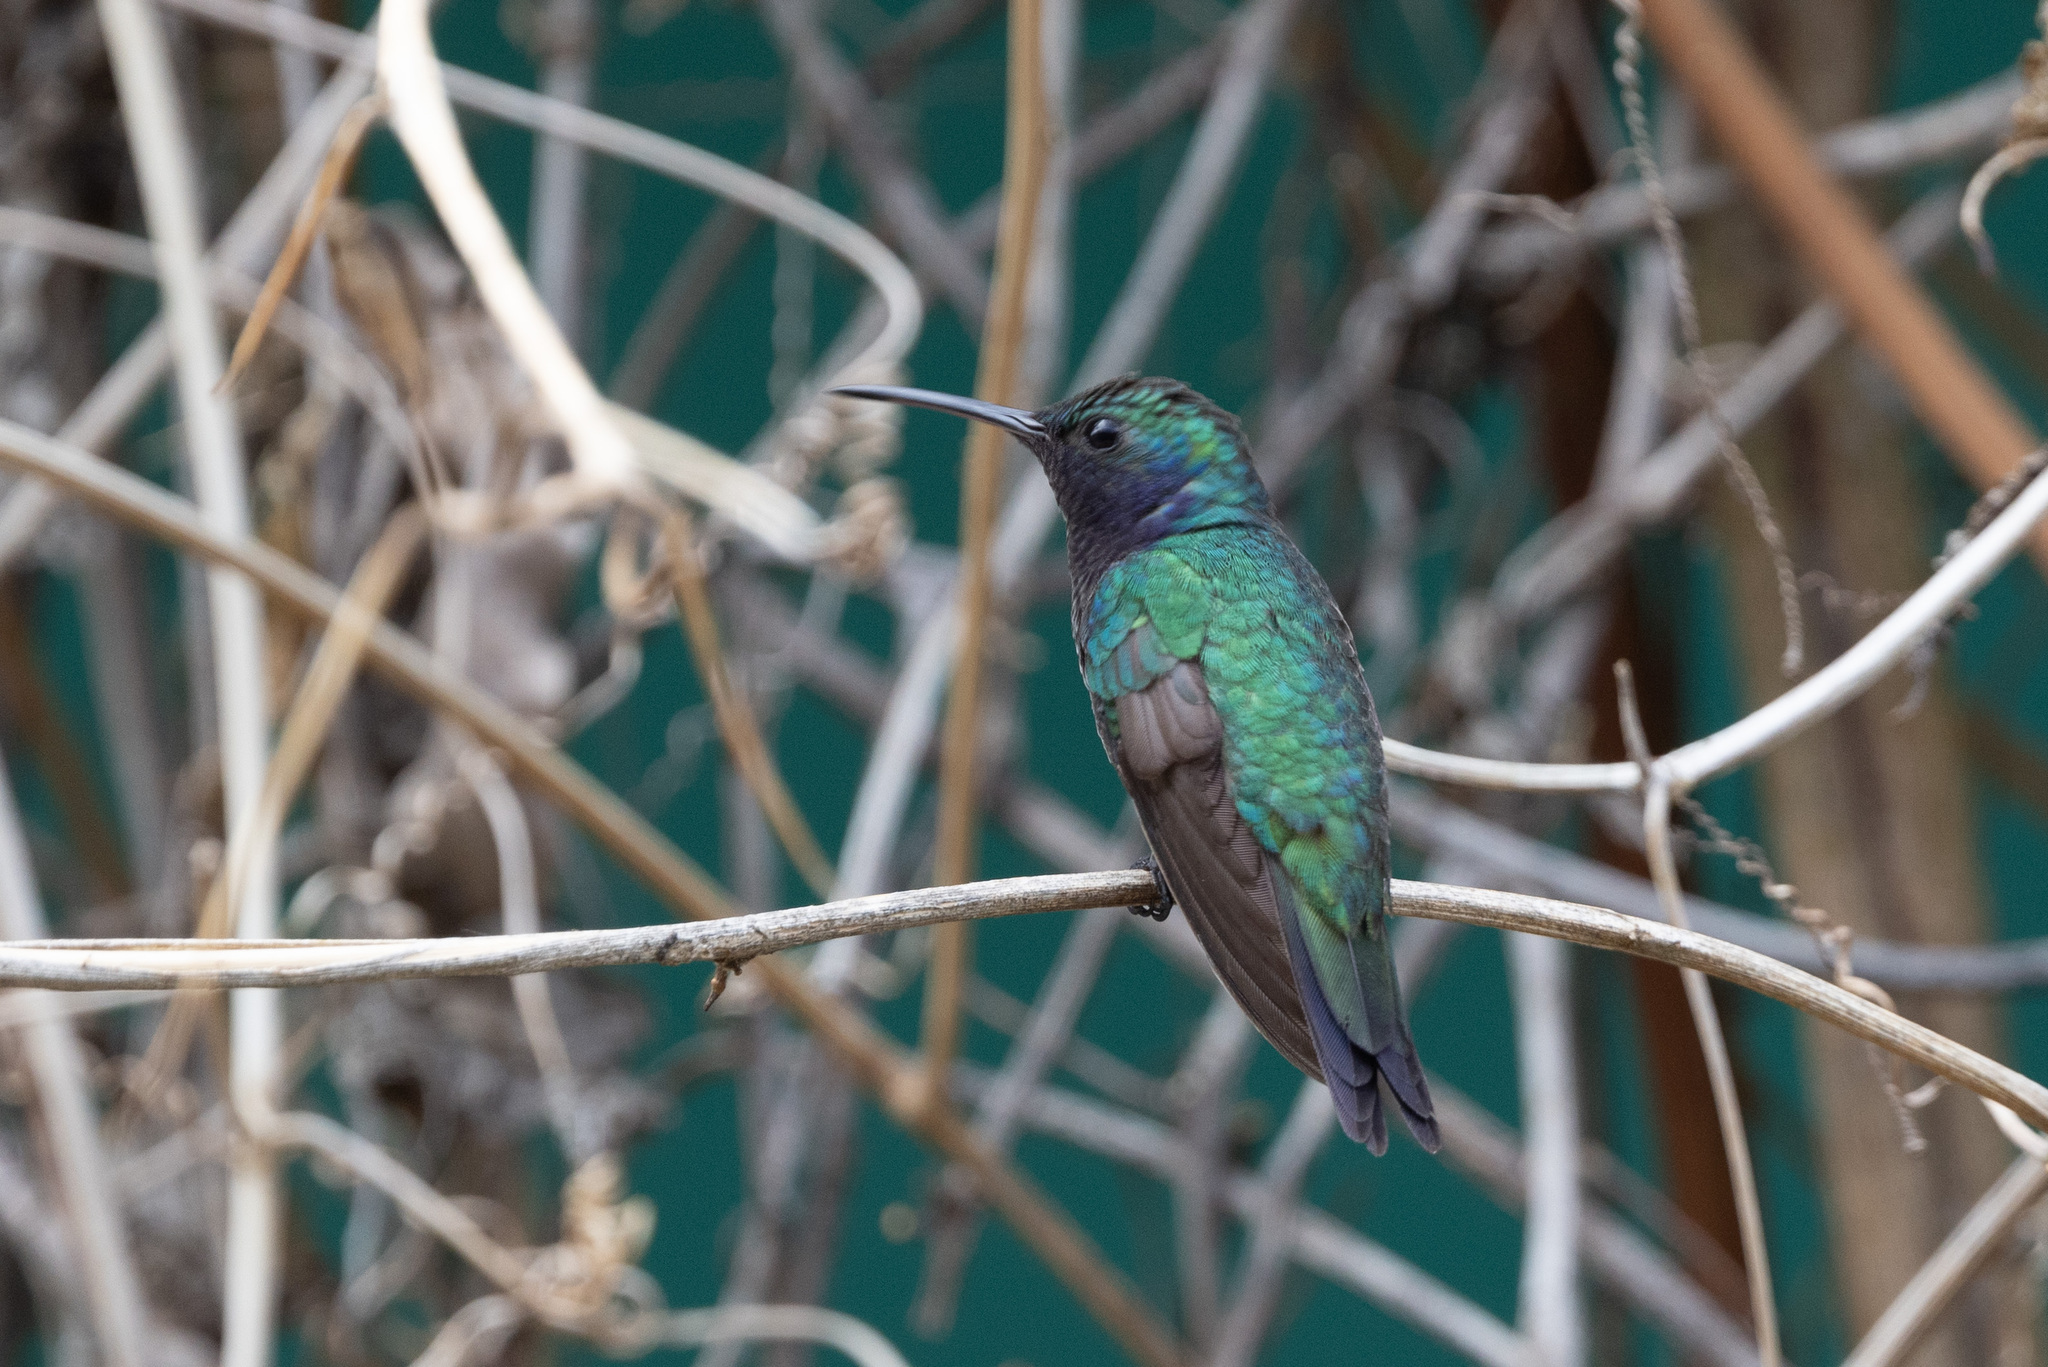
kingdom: Animalia
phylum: Chordata
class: Aves
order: Apodiformes
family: Trochilidae
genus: Chrysuronia
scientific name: Chrysuronia coeruleogularis
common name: Sapphire-throated hummingbird
